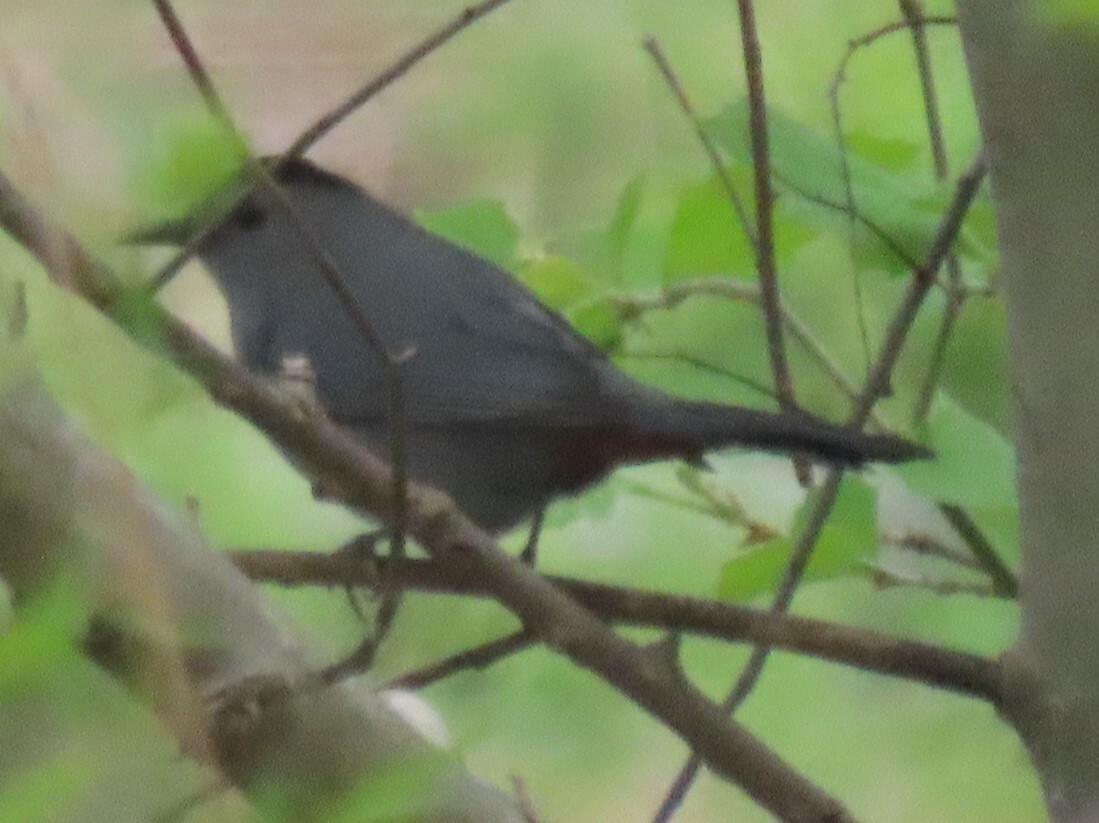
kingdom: Animalia
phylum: Chordata
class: Aves
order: Passeriformes
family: Mimidae
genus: Dumetella
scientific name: Dumetella carolinensis
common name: Gray catbird
